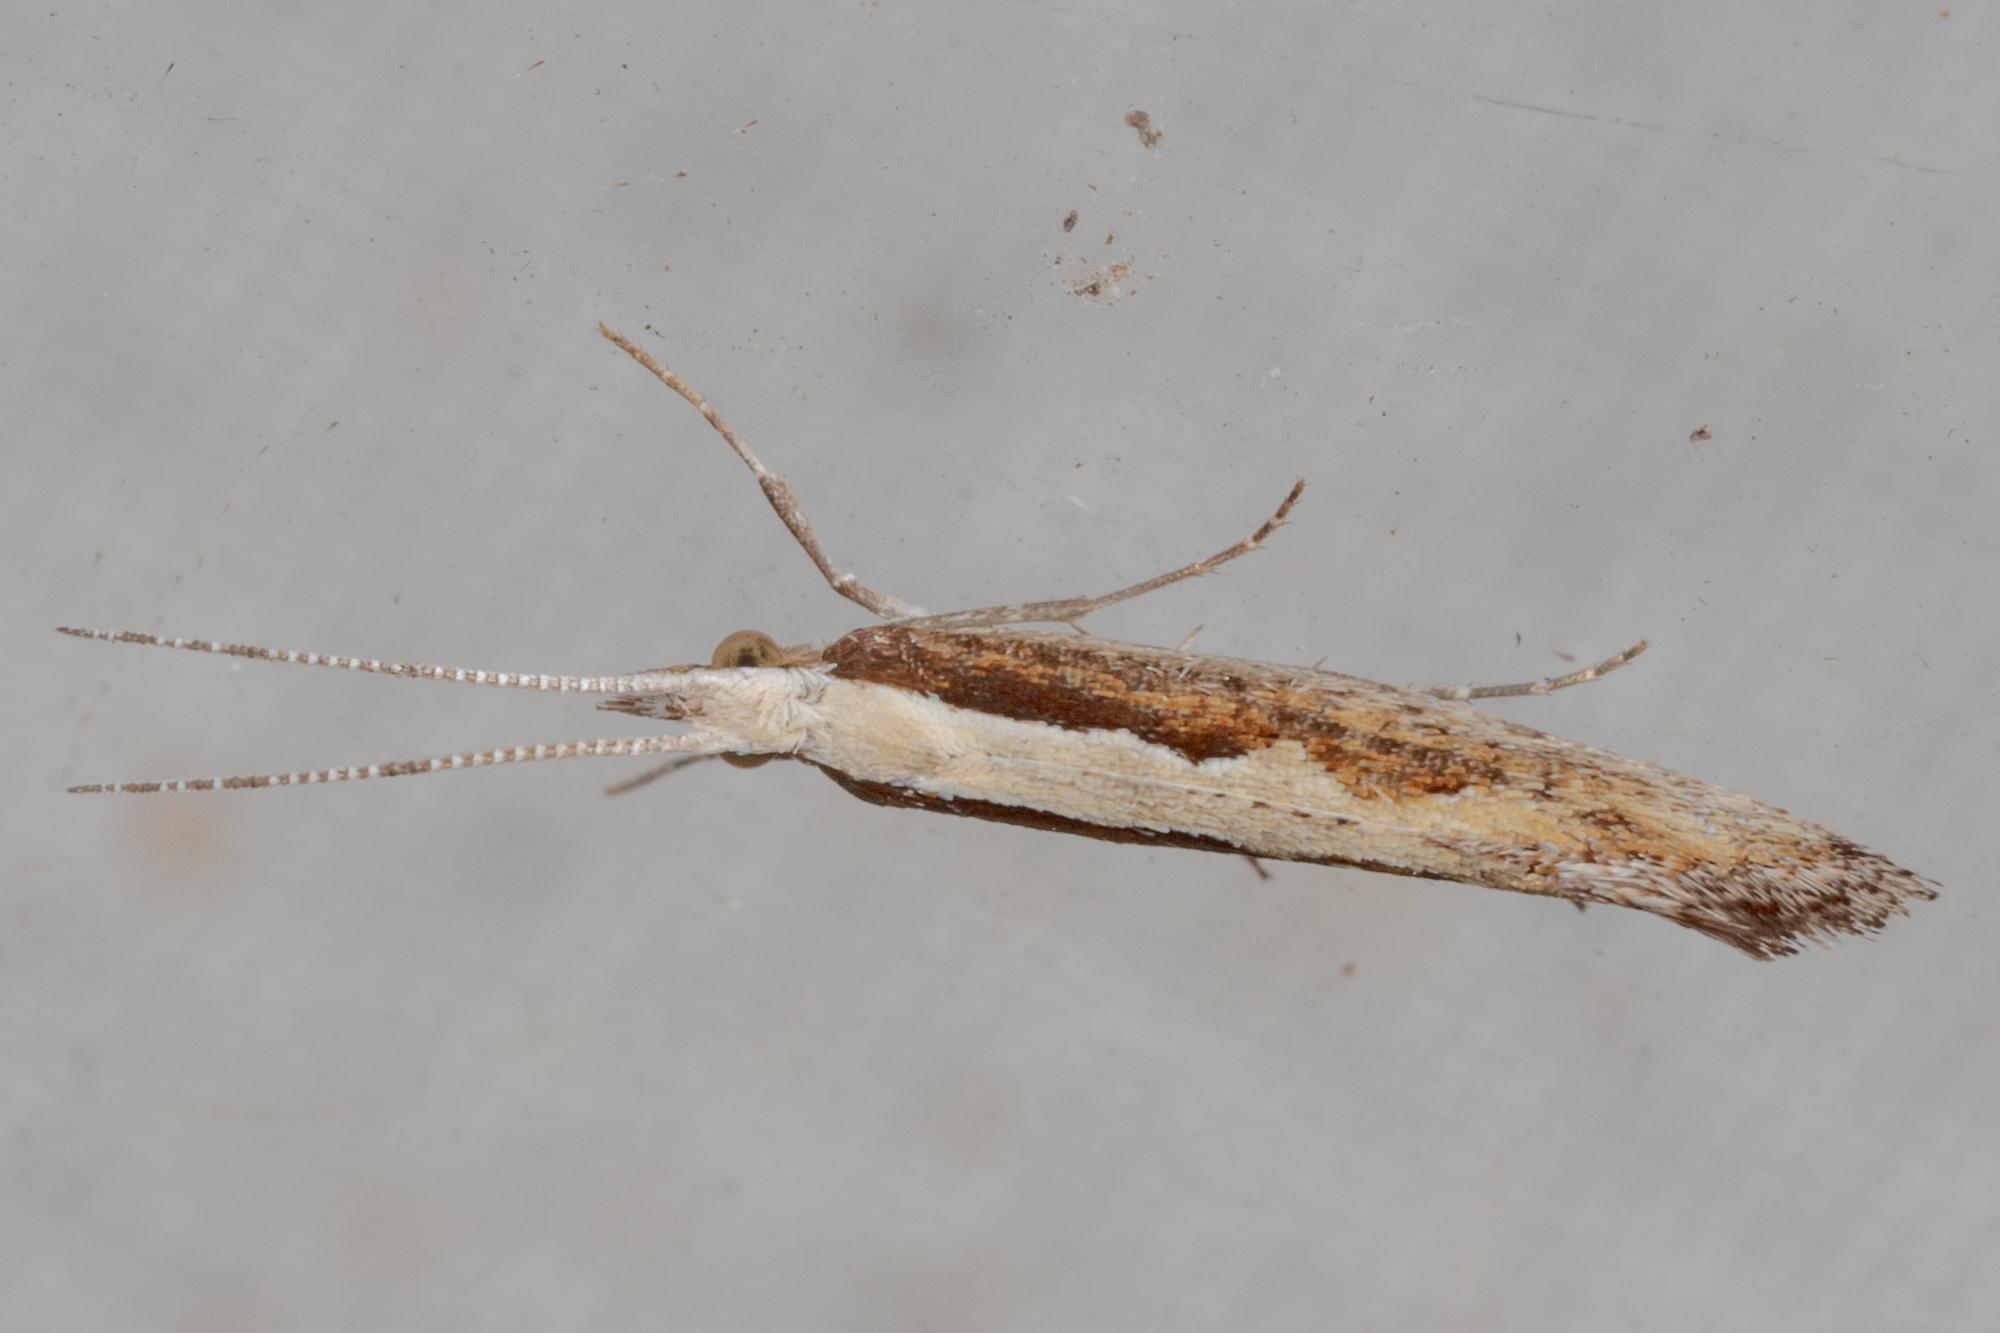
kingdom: Animalia
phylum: Arthropoda
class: Insecta
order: Lepidoptera
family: Plutellidae
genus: Plutella
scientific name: Plutella xylostella
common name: Diamond-back moth
